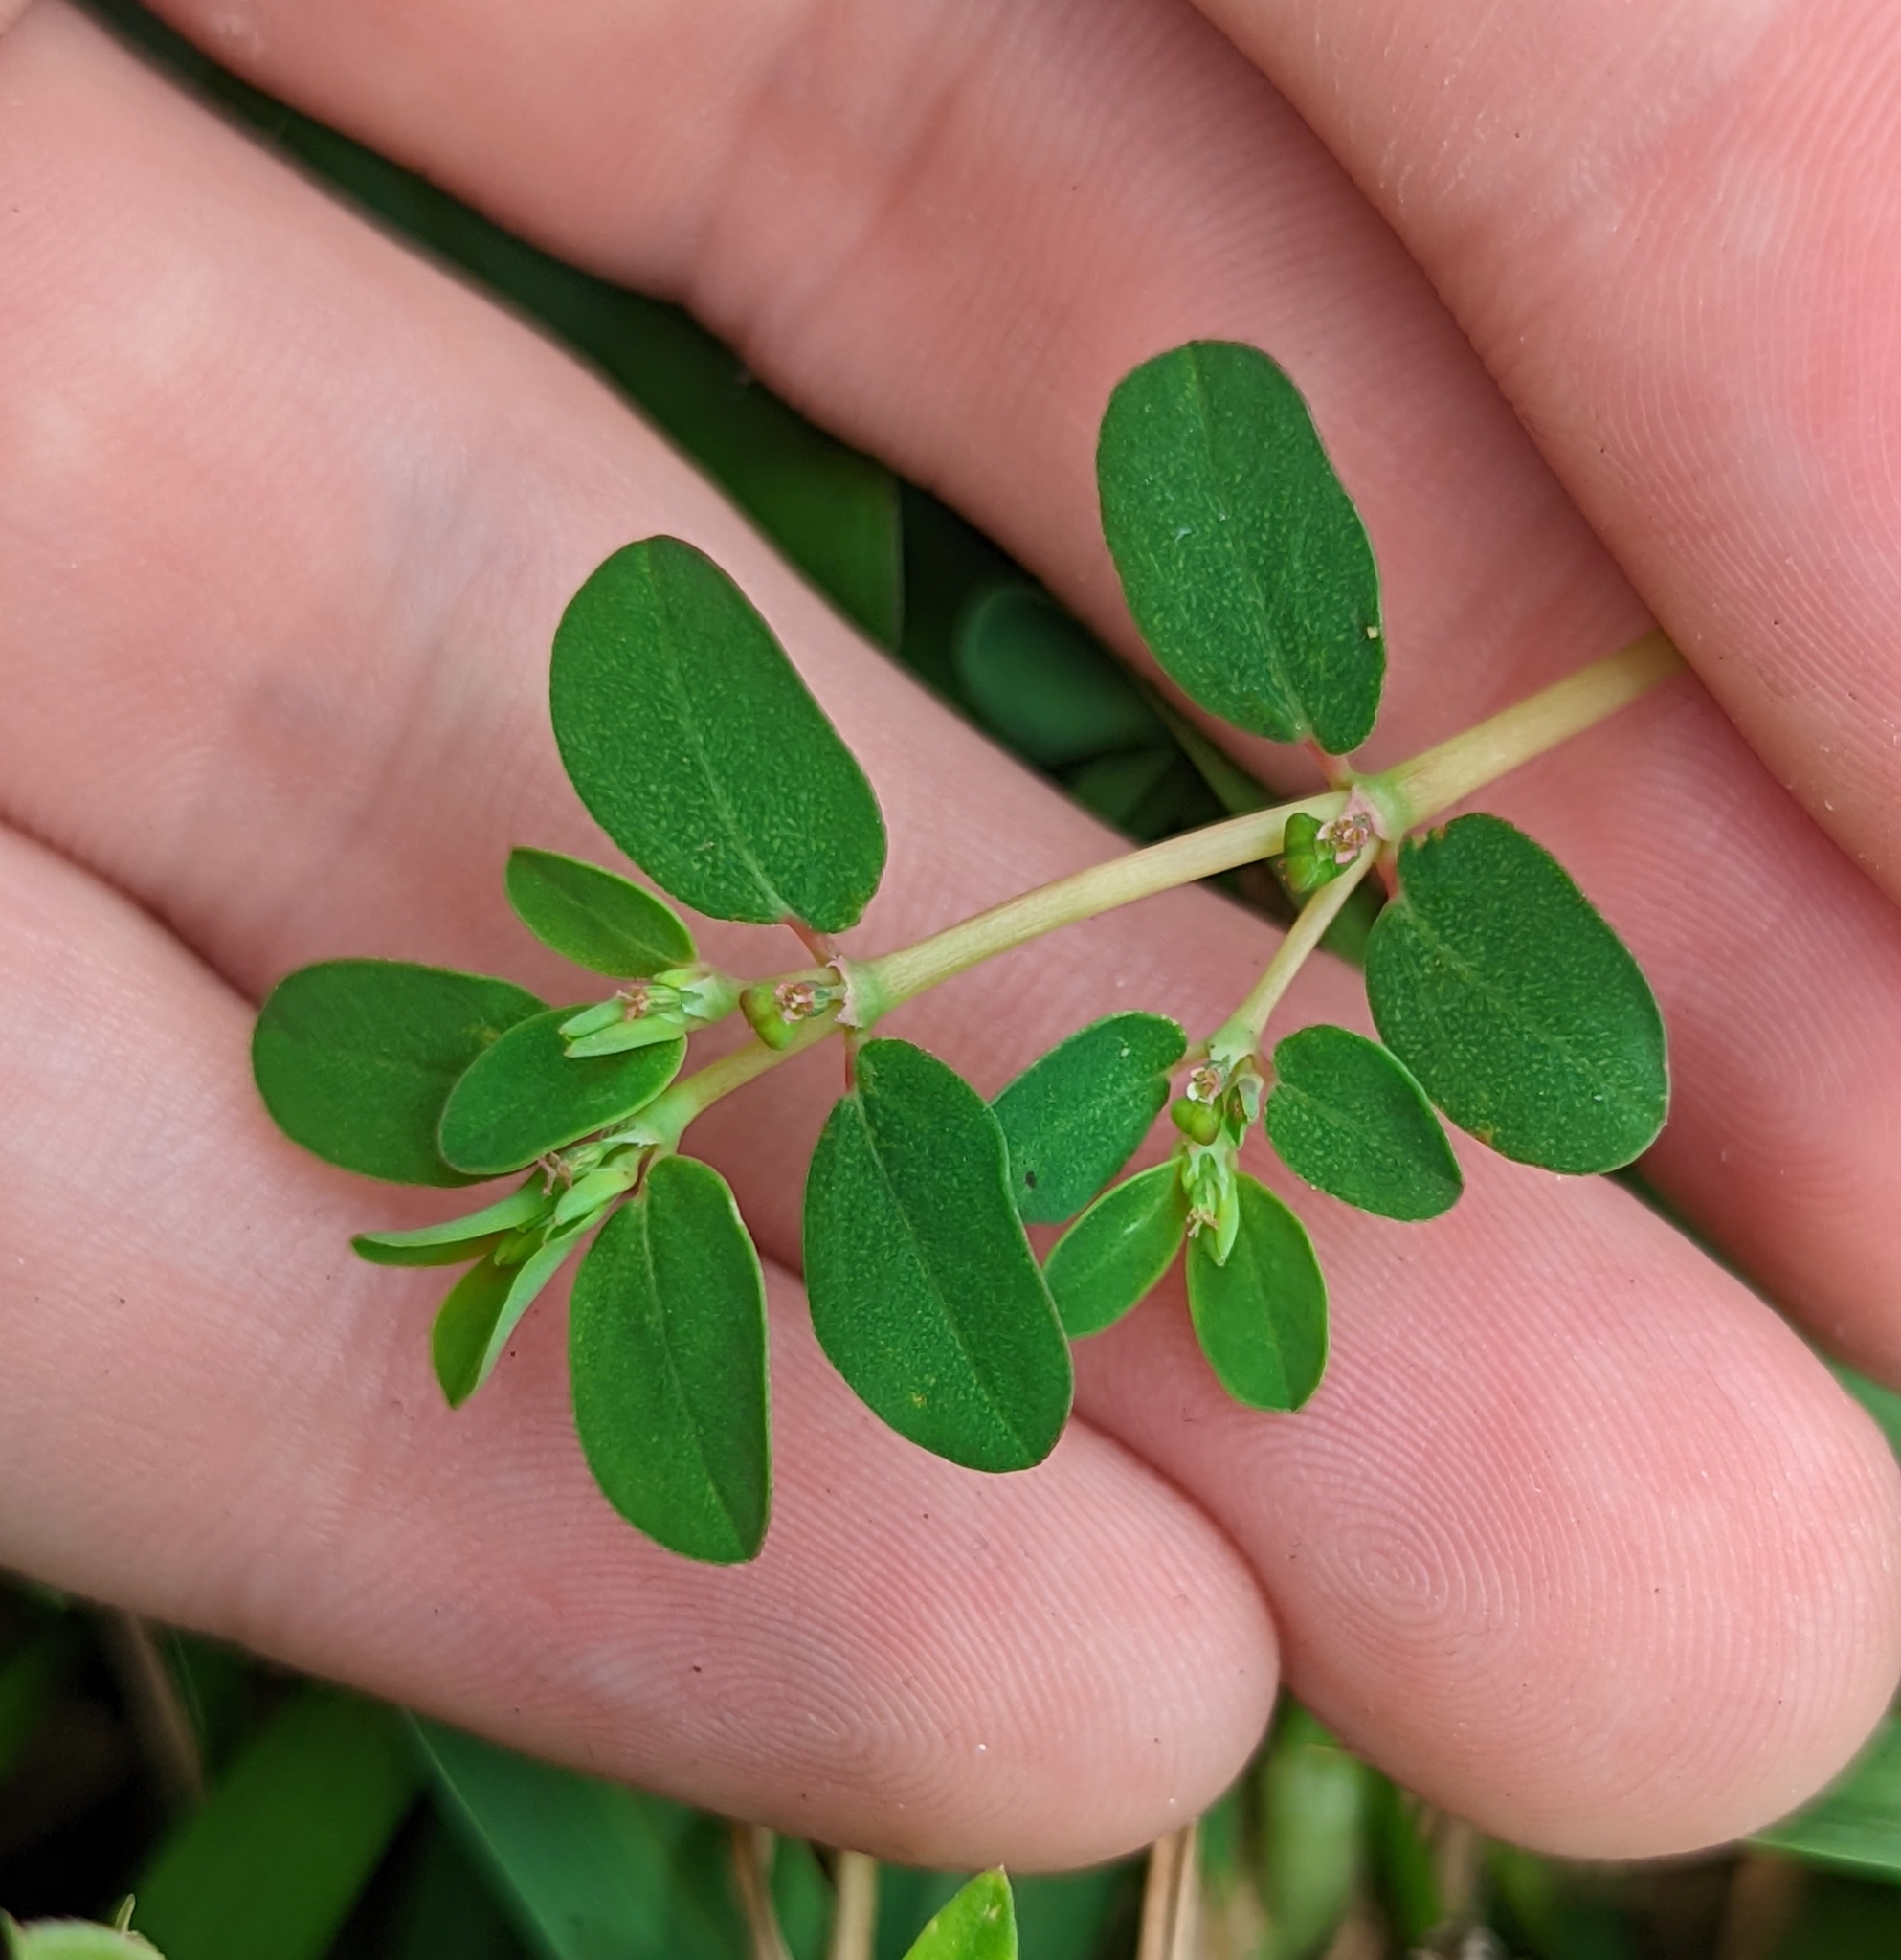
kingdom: Plantae
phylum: Tracheophyta
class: Magnoliopsida
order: Malpighiales
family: Euphorbiaceae
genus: Euphorbia
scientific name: Euphorbia blodgettii
